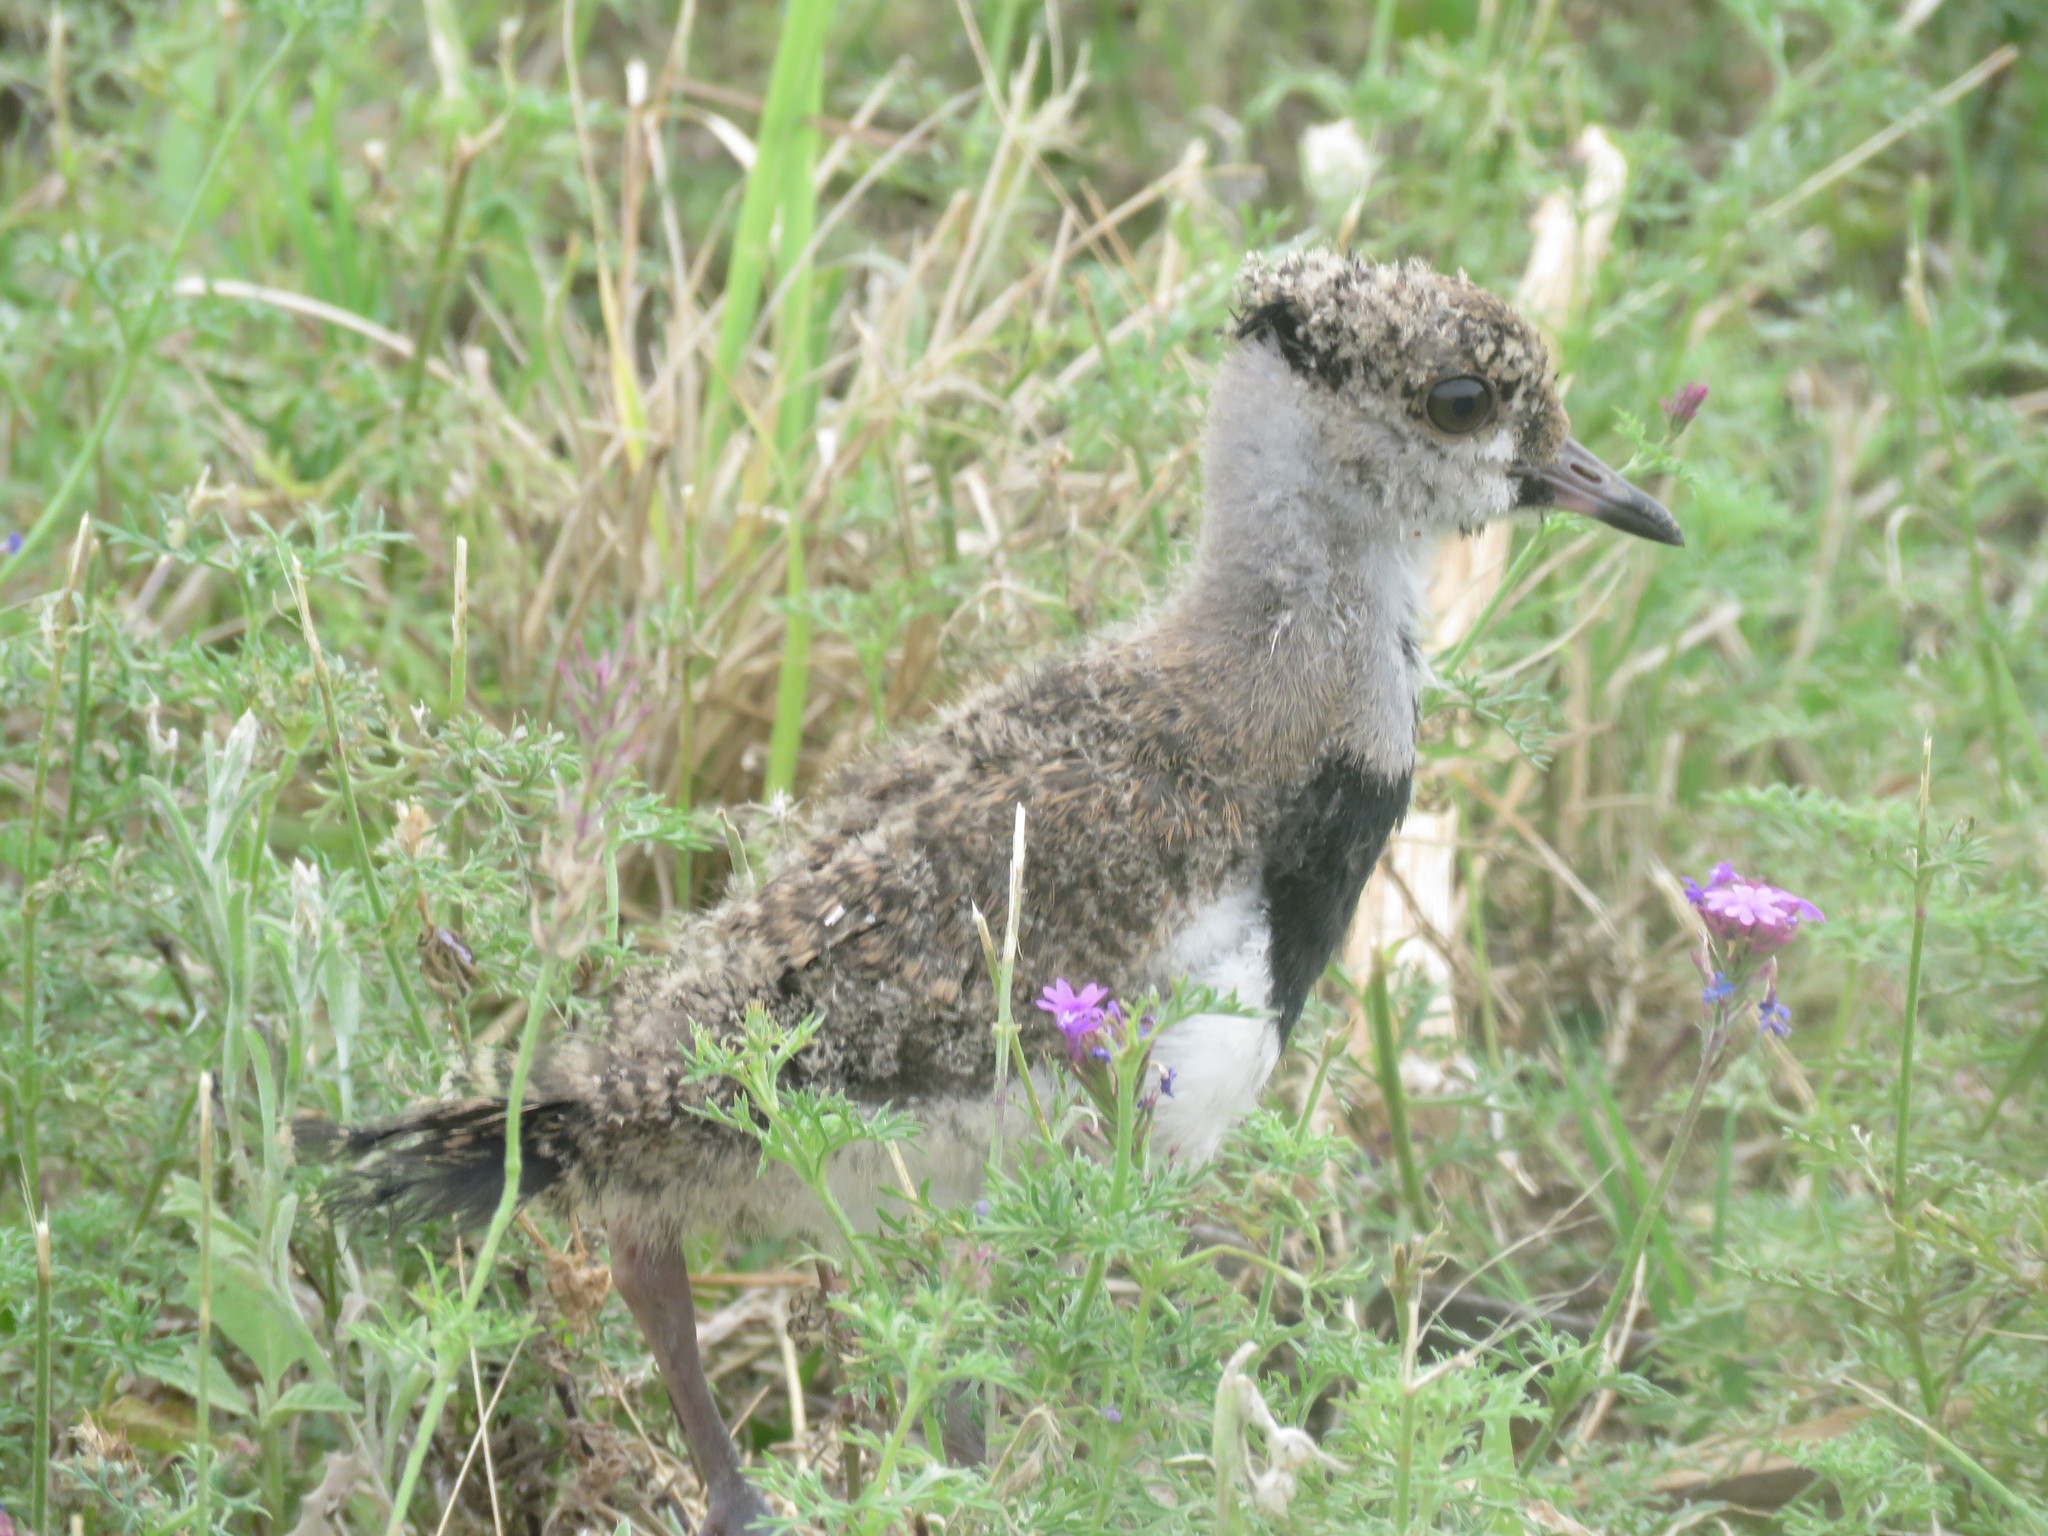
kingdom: Animalia
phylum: Chordata
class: Aves
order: Charadriiformes
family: Charadriidae
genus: Vanellus
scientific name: Vanellus chilensis
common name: Southern lapwing
